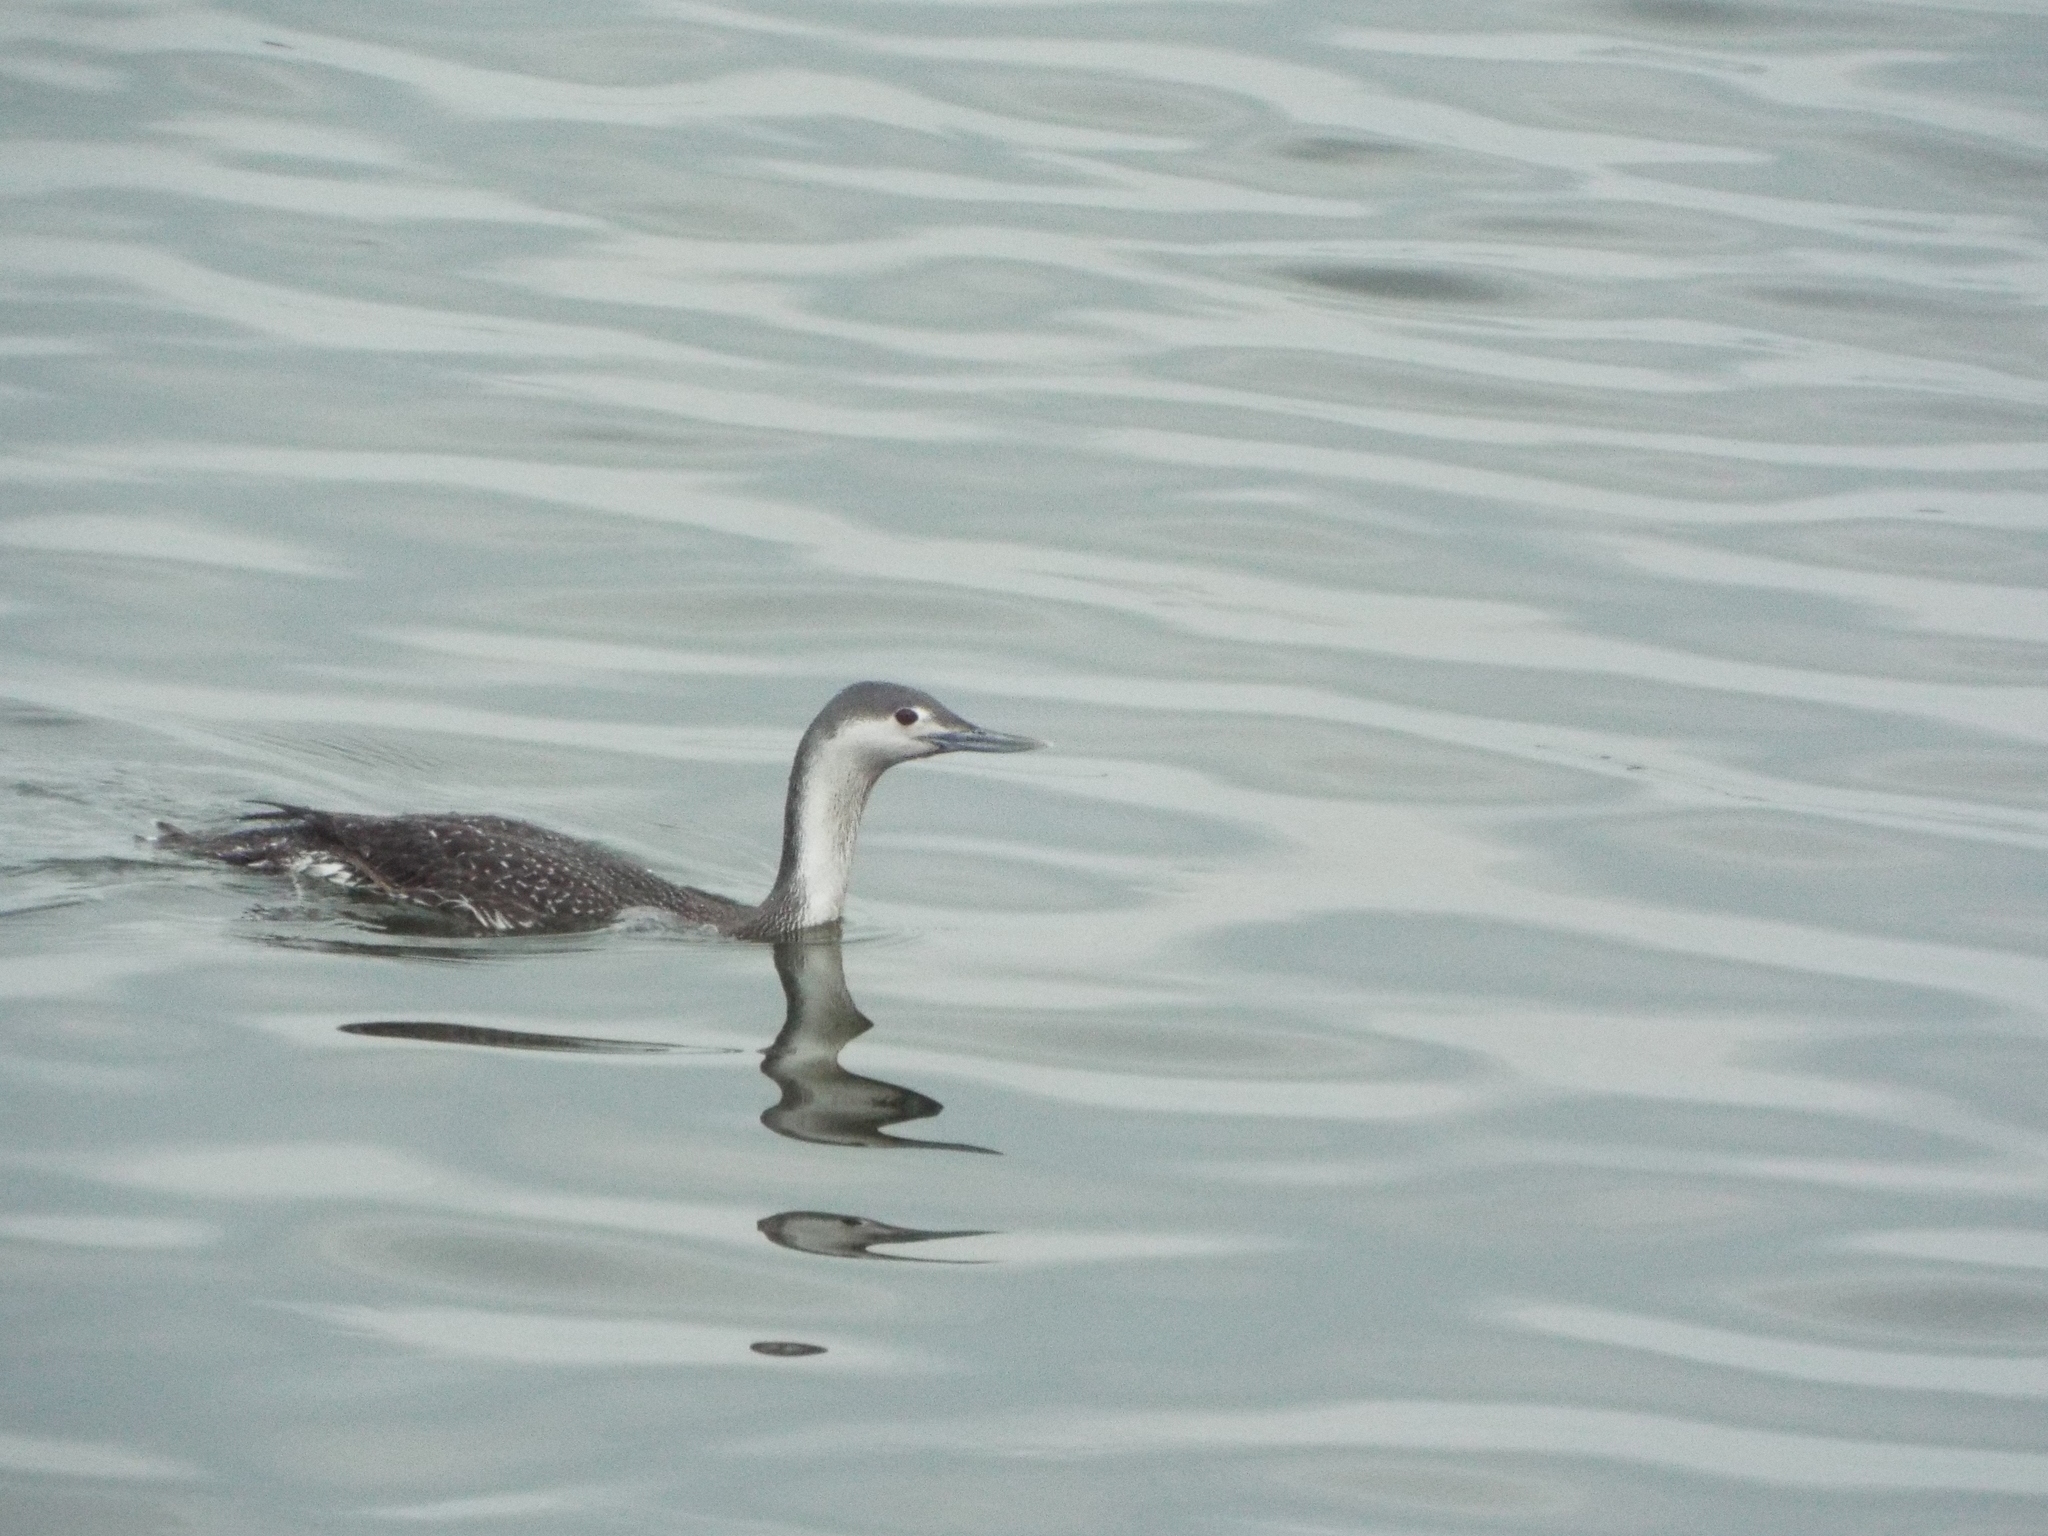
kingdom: Animalia
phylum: Chordata
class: Aves
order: Gaviiformes
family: Gaviidae
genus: Gavia
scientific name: Gavia stellata
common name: Red-throated loon
